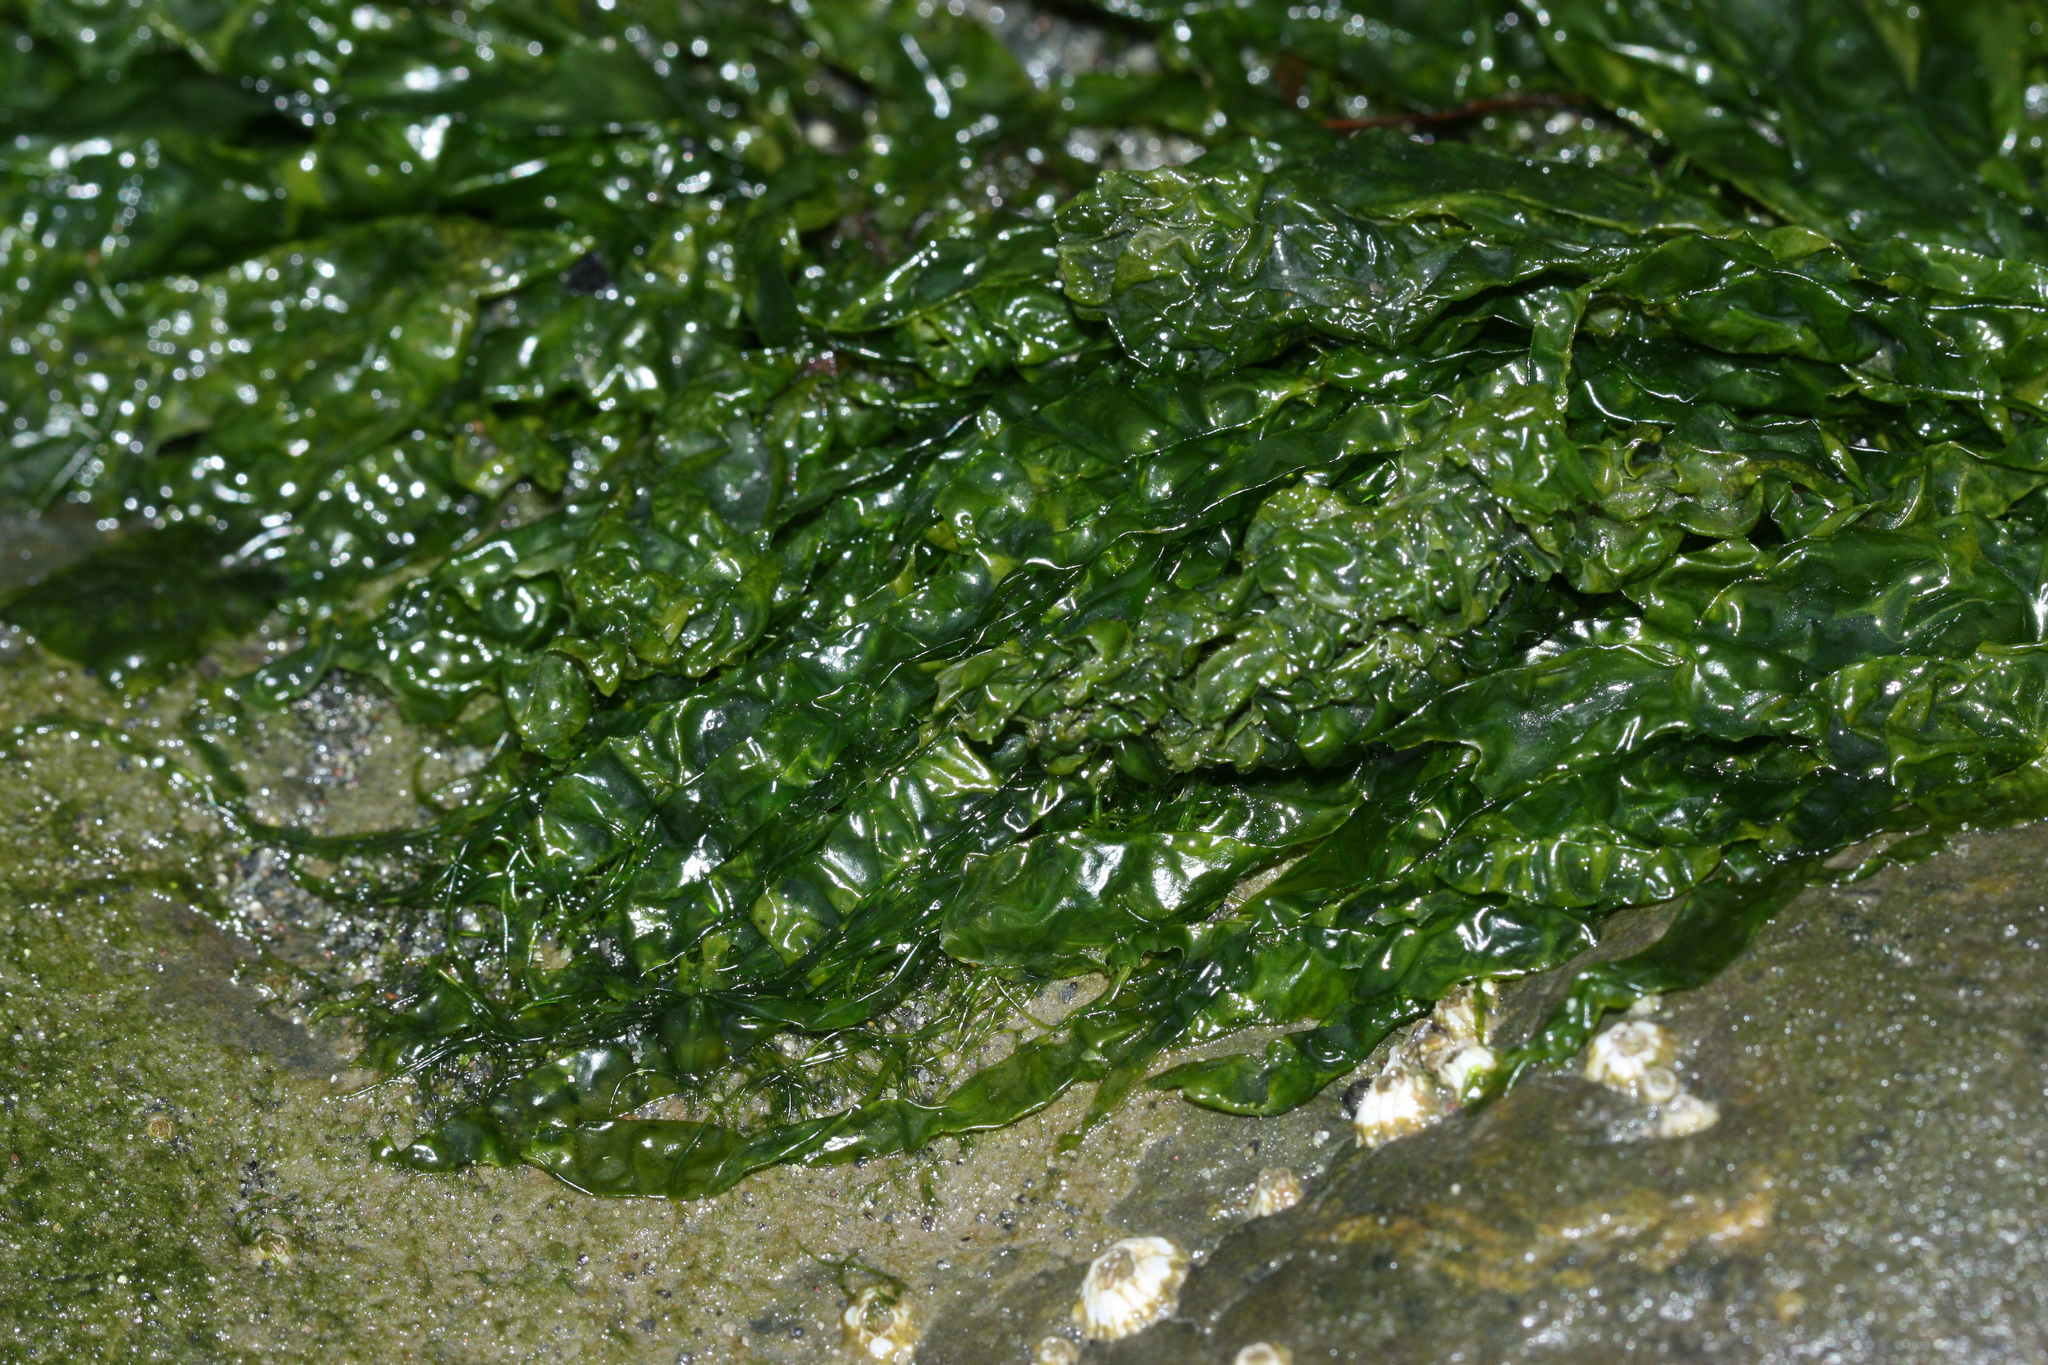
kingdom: Plantae
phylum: Chlorophyta
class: Ulvophyceae
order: Ulvales
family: Ulvaceae
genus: Ulva
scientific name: Ulva intestinalis
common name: Gut weed
